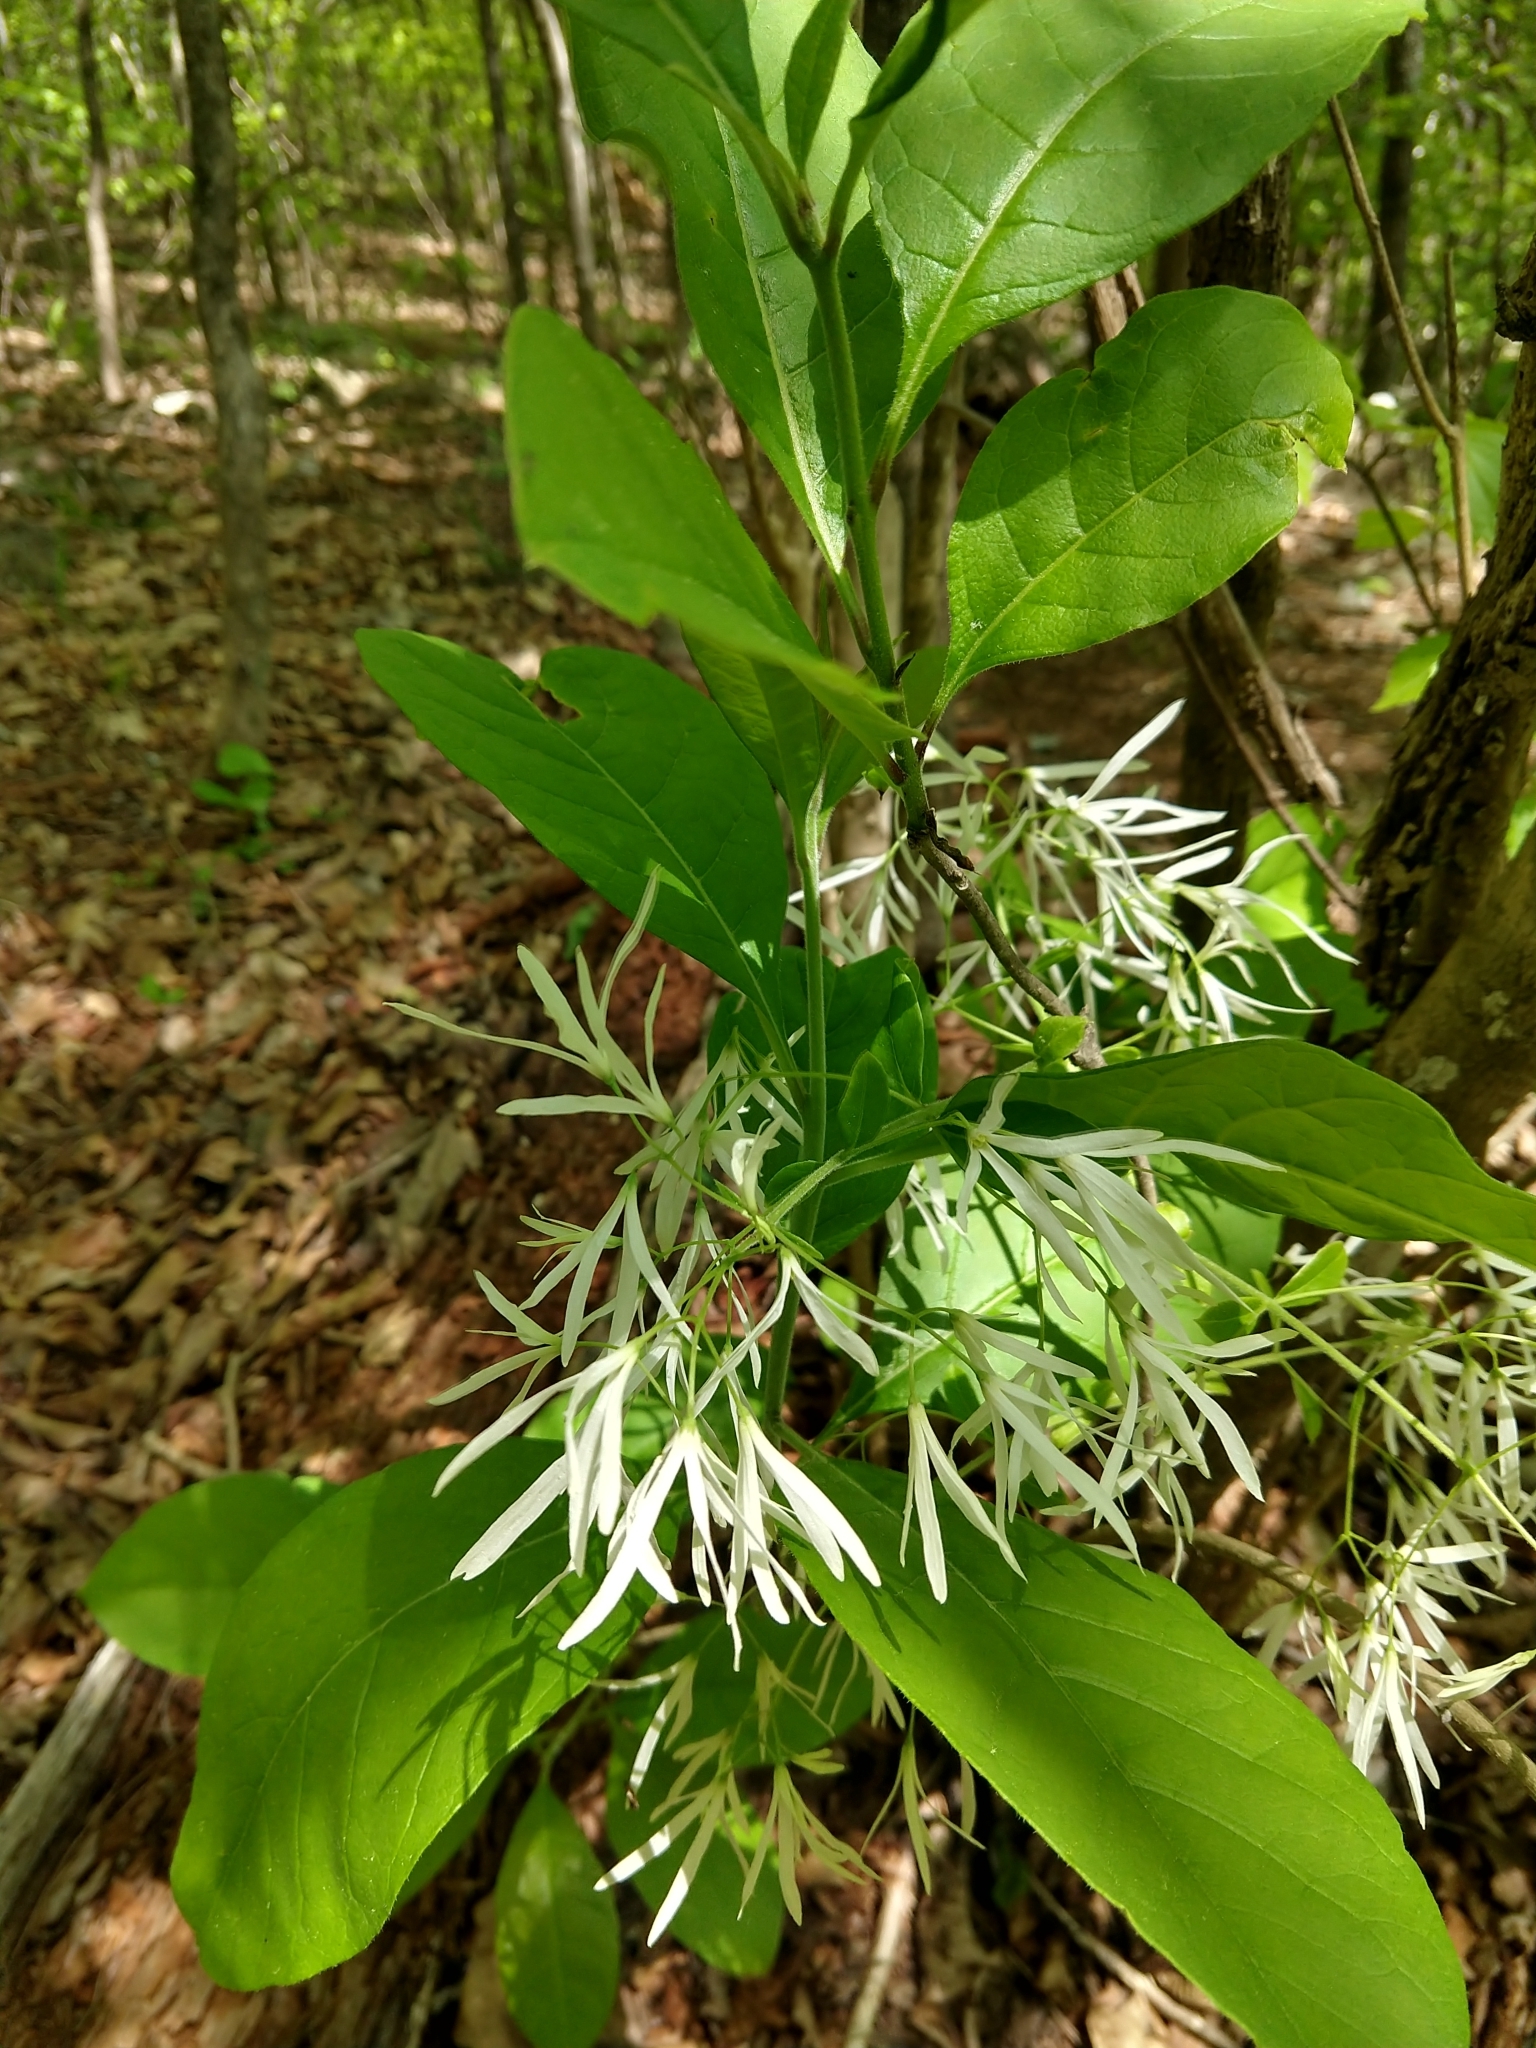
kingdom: Plantae
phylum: Tracheophyta
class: Magnoliopsida
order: Lamiales
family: Oleaceae
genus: Chionanthus
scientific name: Chionanthus virginicus
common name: American fringetree
